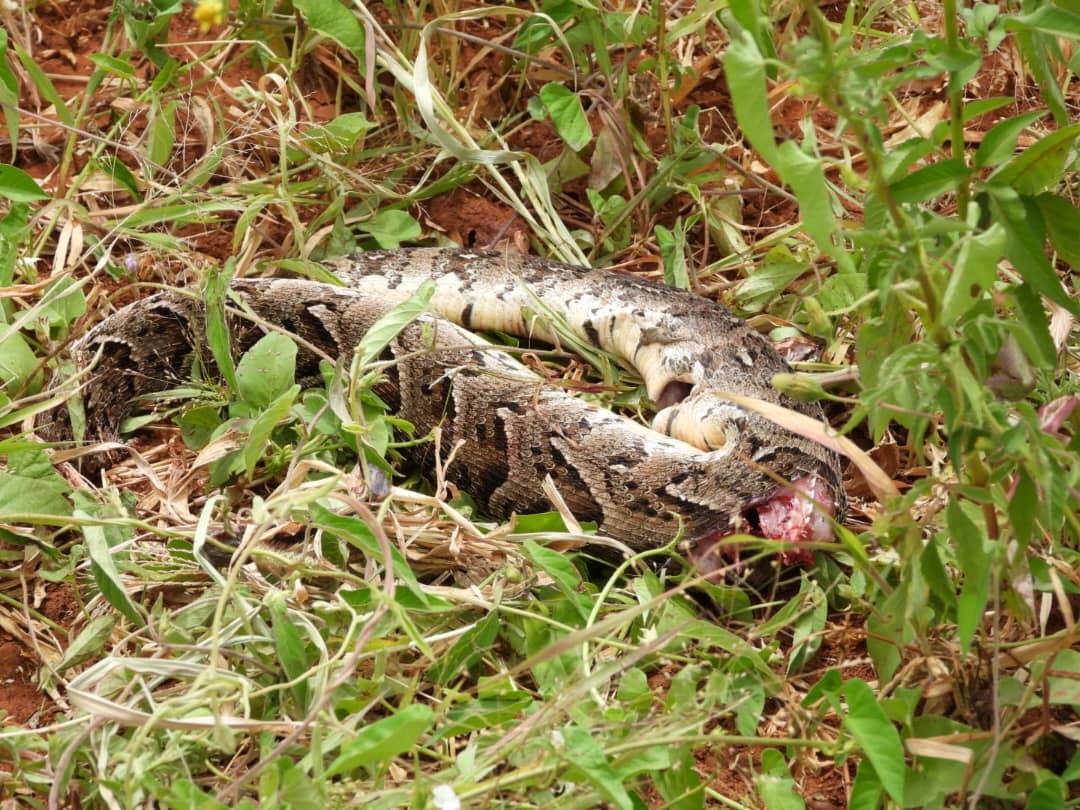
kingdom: Animalia
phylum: Chordata
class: Squamata
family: Viperidae
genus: Bitis
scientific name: Bitis arietans
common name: Puff adder
